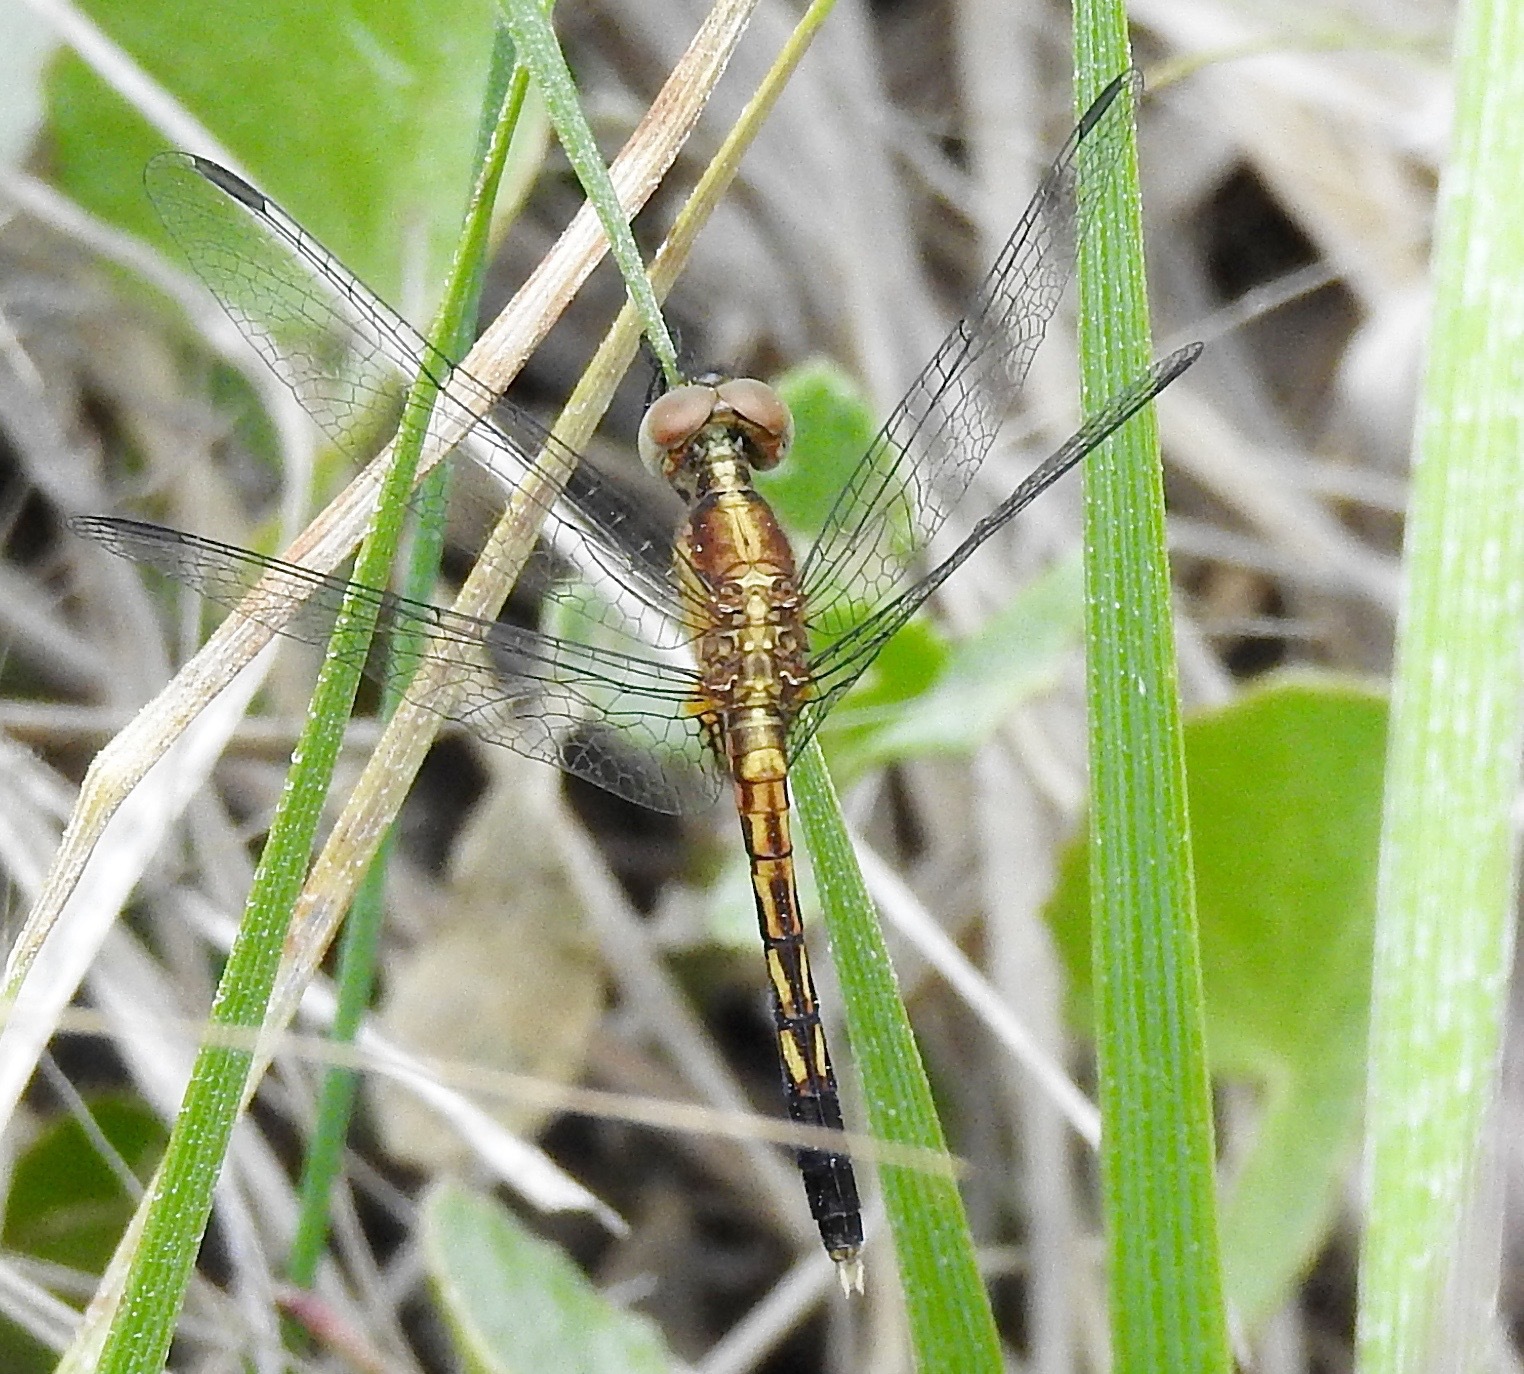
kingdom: Animalia
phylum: Arthropoda
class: Insecta
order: Odonata
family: Libellulidae
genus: Erythrodiplax
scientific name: Erythrodiplax minuscula
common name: Little blue dragonlet
